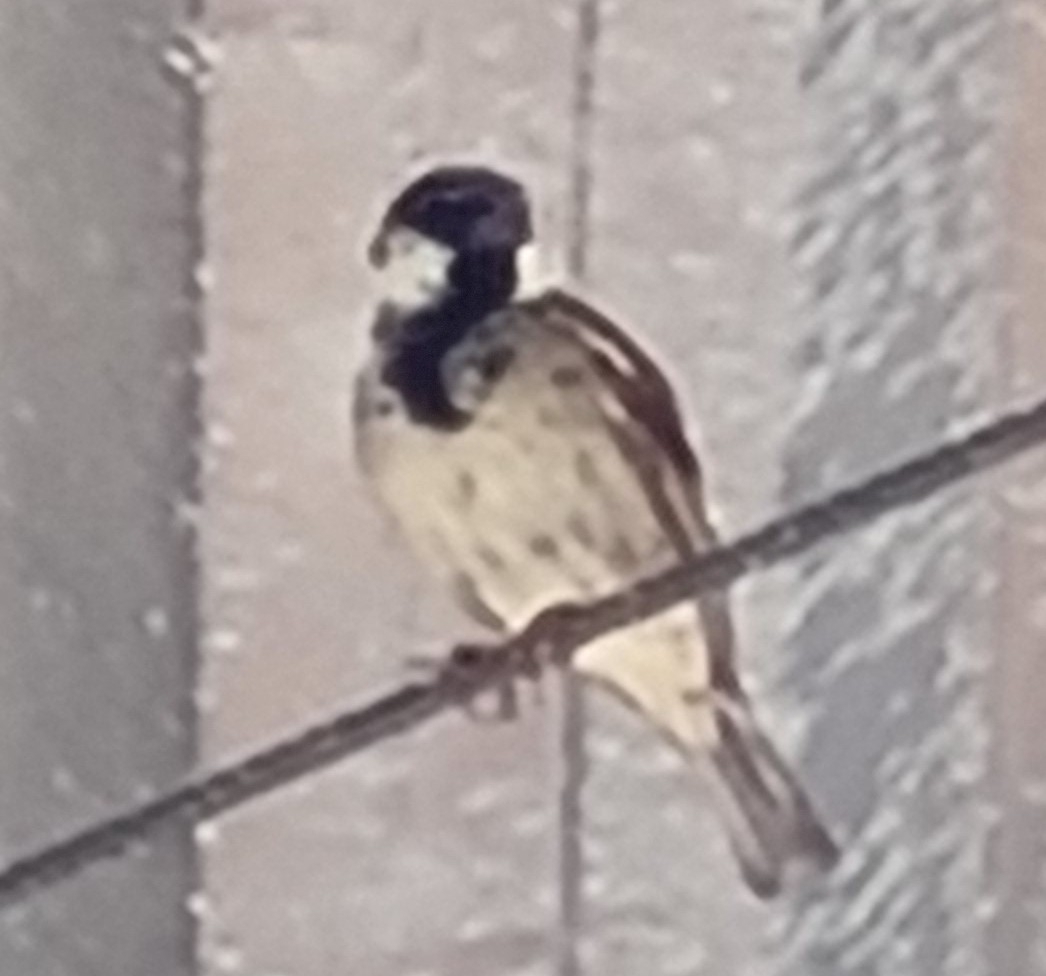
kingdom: Animalia
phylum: Chordata
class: Aves
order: Passeriformes
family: Passeridae
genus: Passer
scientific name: Passer domesticus
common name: House sparrow
